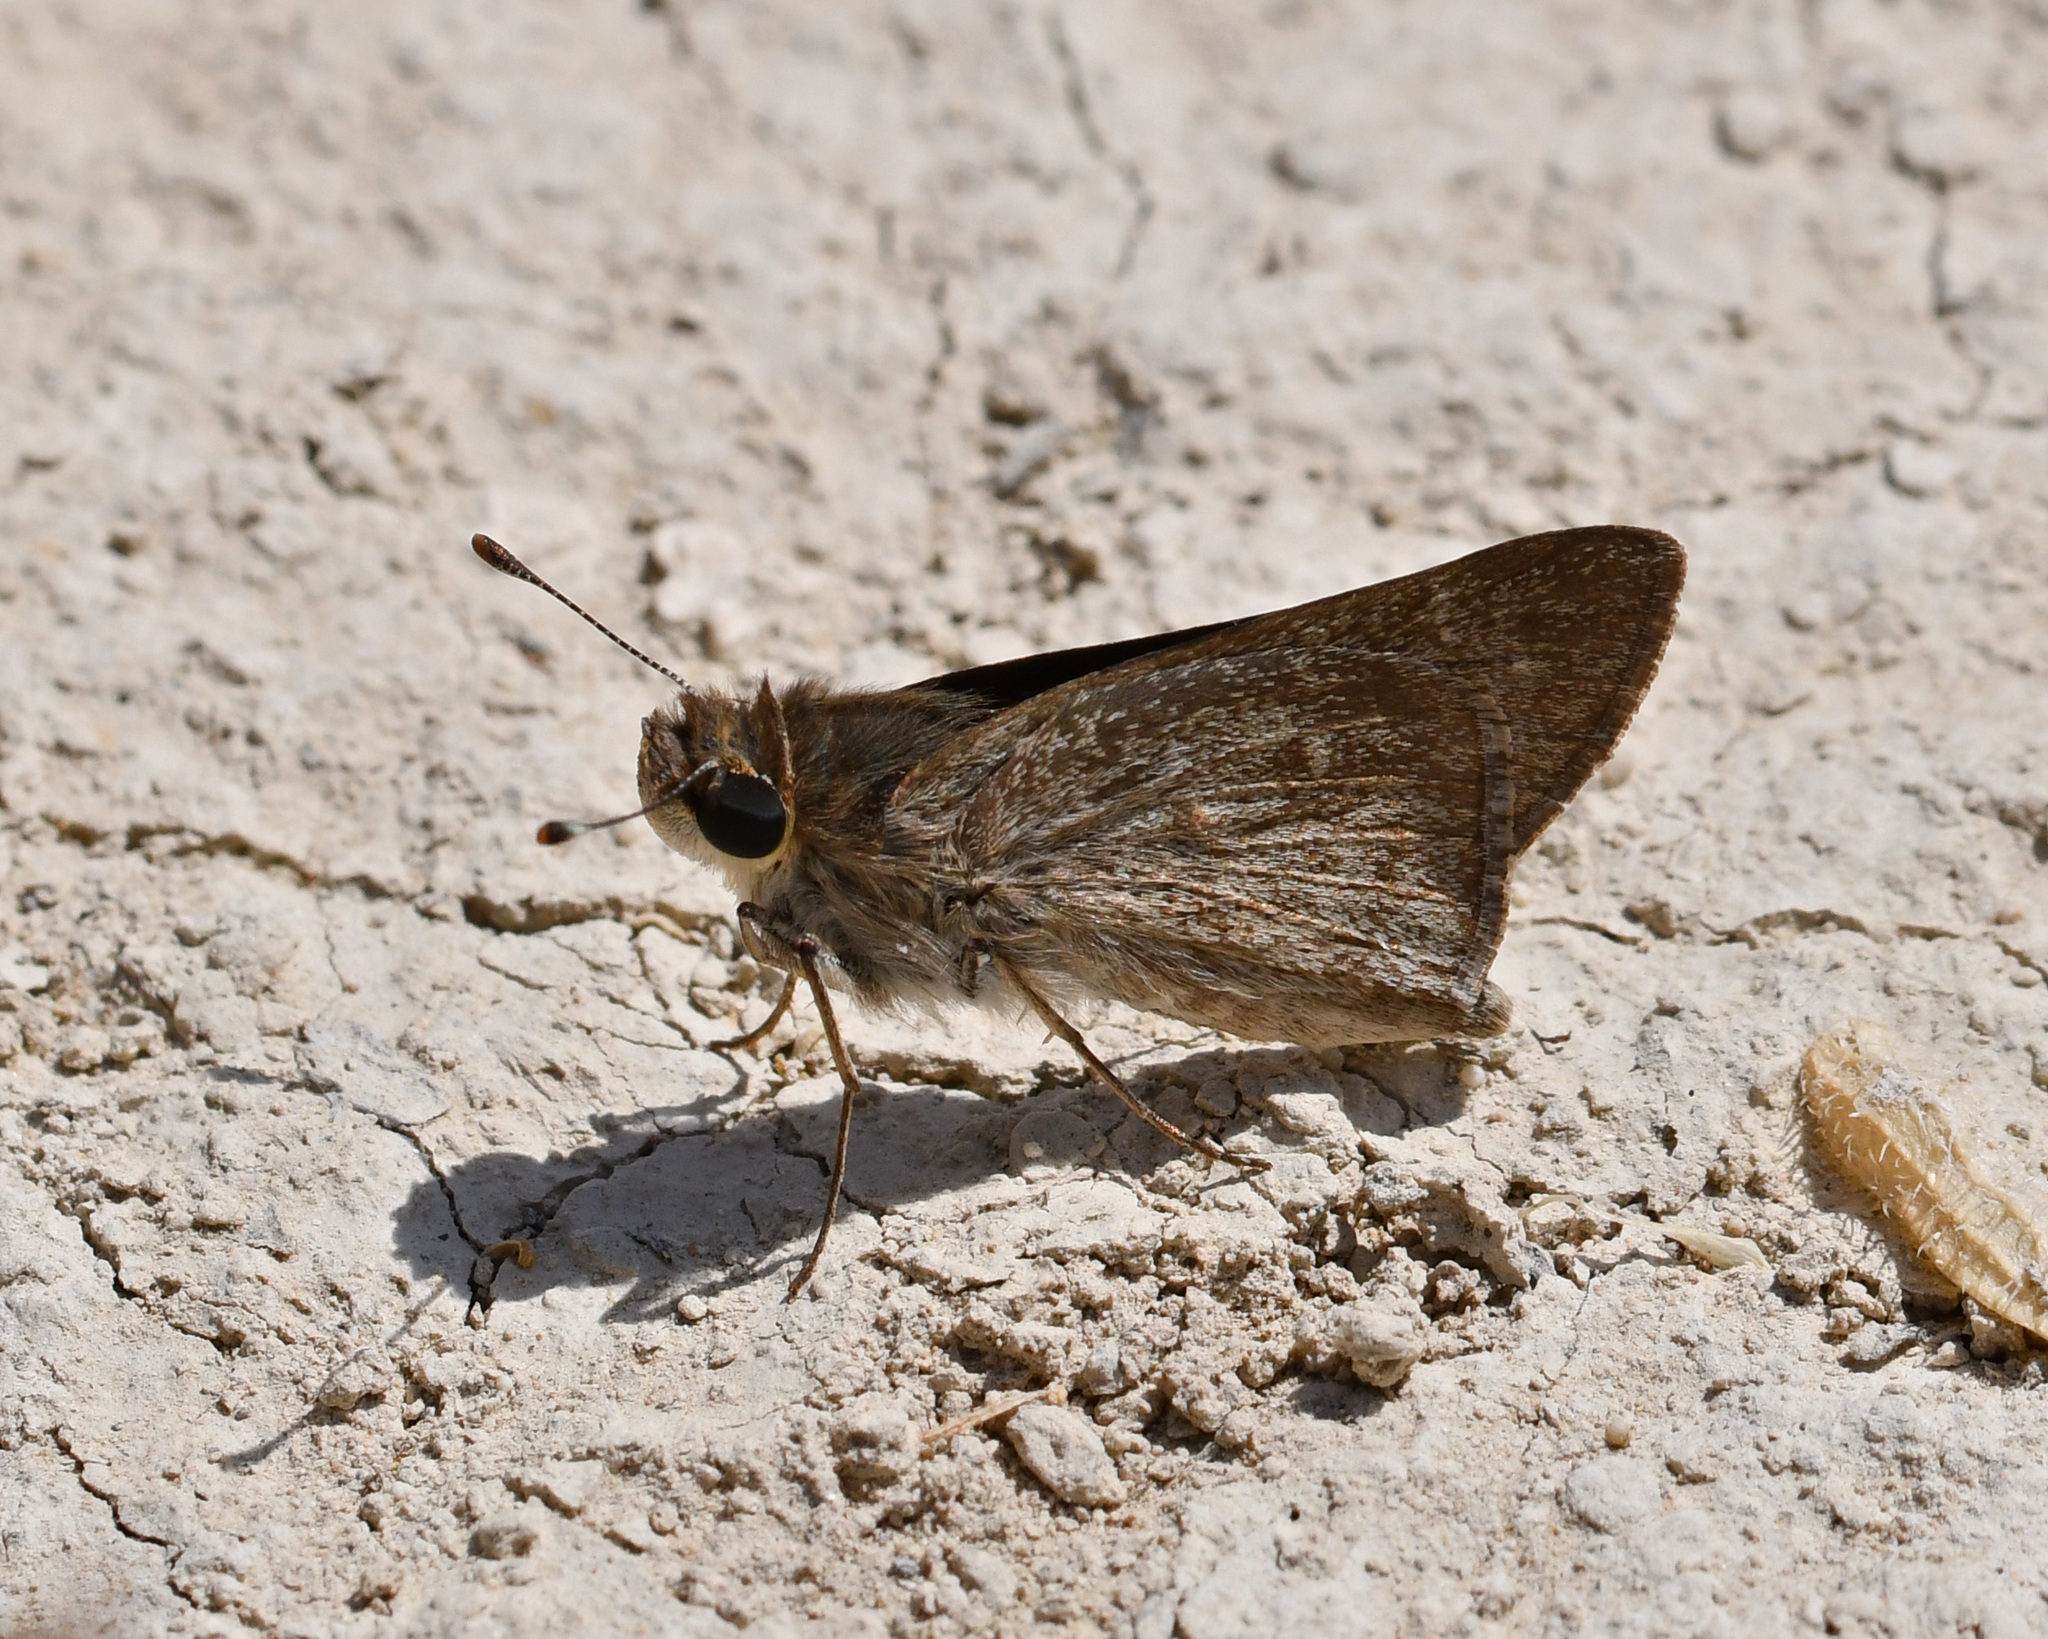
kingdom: Animalia
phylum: Arthropoda
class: Insecta
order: Lepidoptera
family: Hesperiidae
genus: Gegenes
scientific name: Gegenes pumilio
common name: Pigmy skipper
